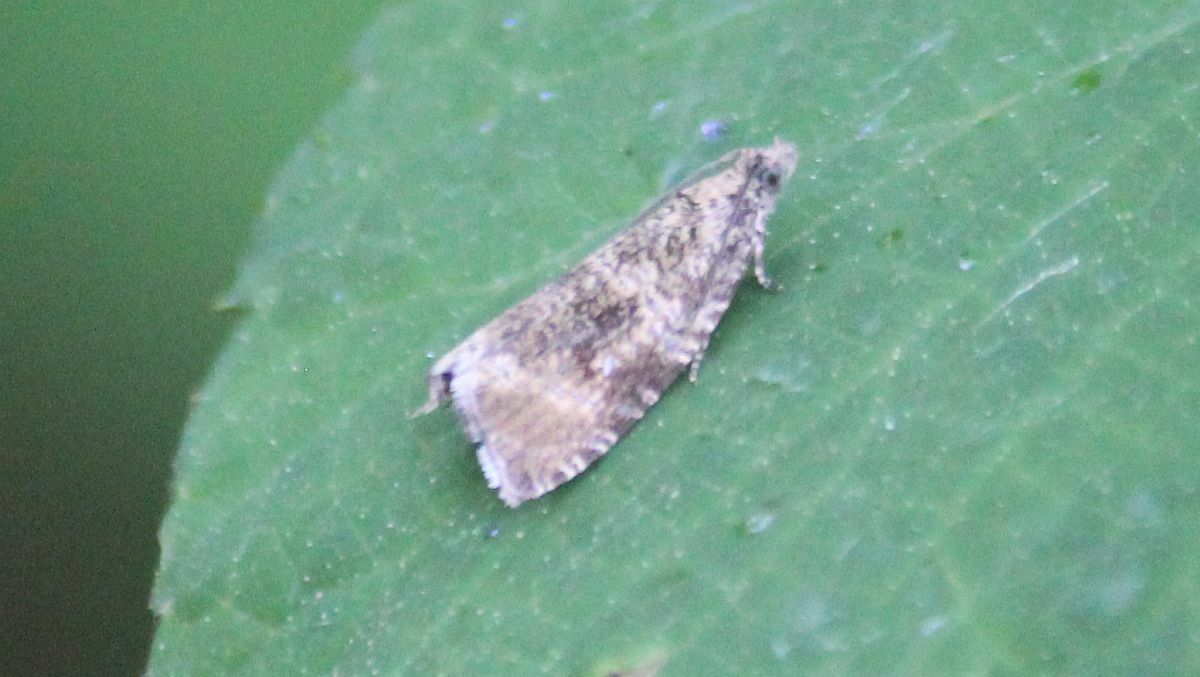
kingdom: Animalia
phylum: Arthropoda
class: Insecta
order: Lepidoptera
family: Tortricidae
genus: Syricoris
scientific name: Syricoris lacunana
